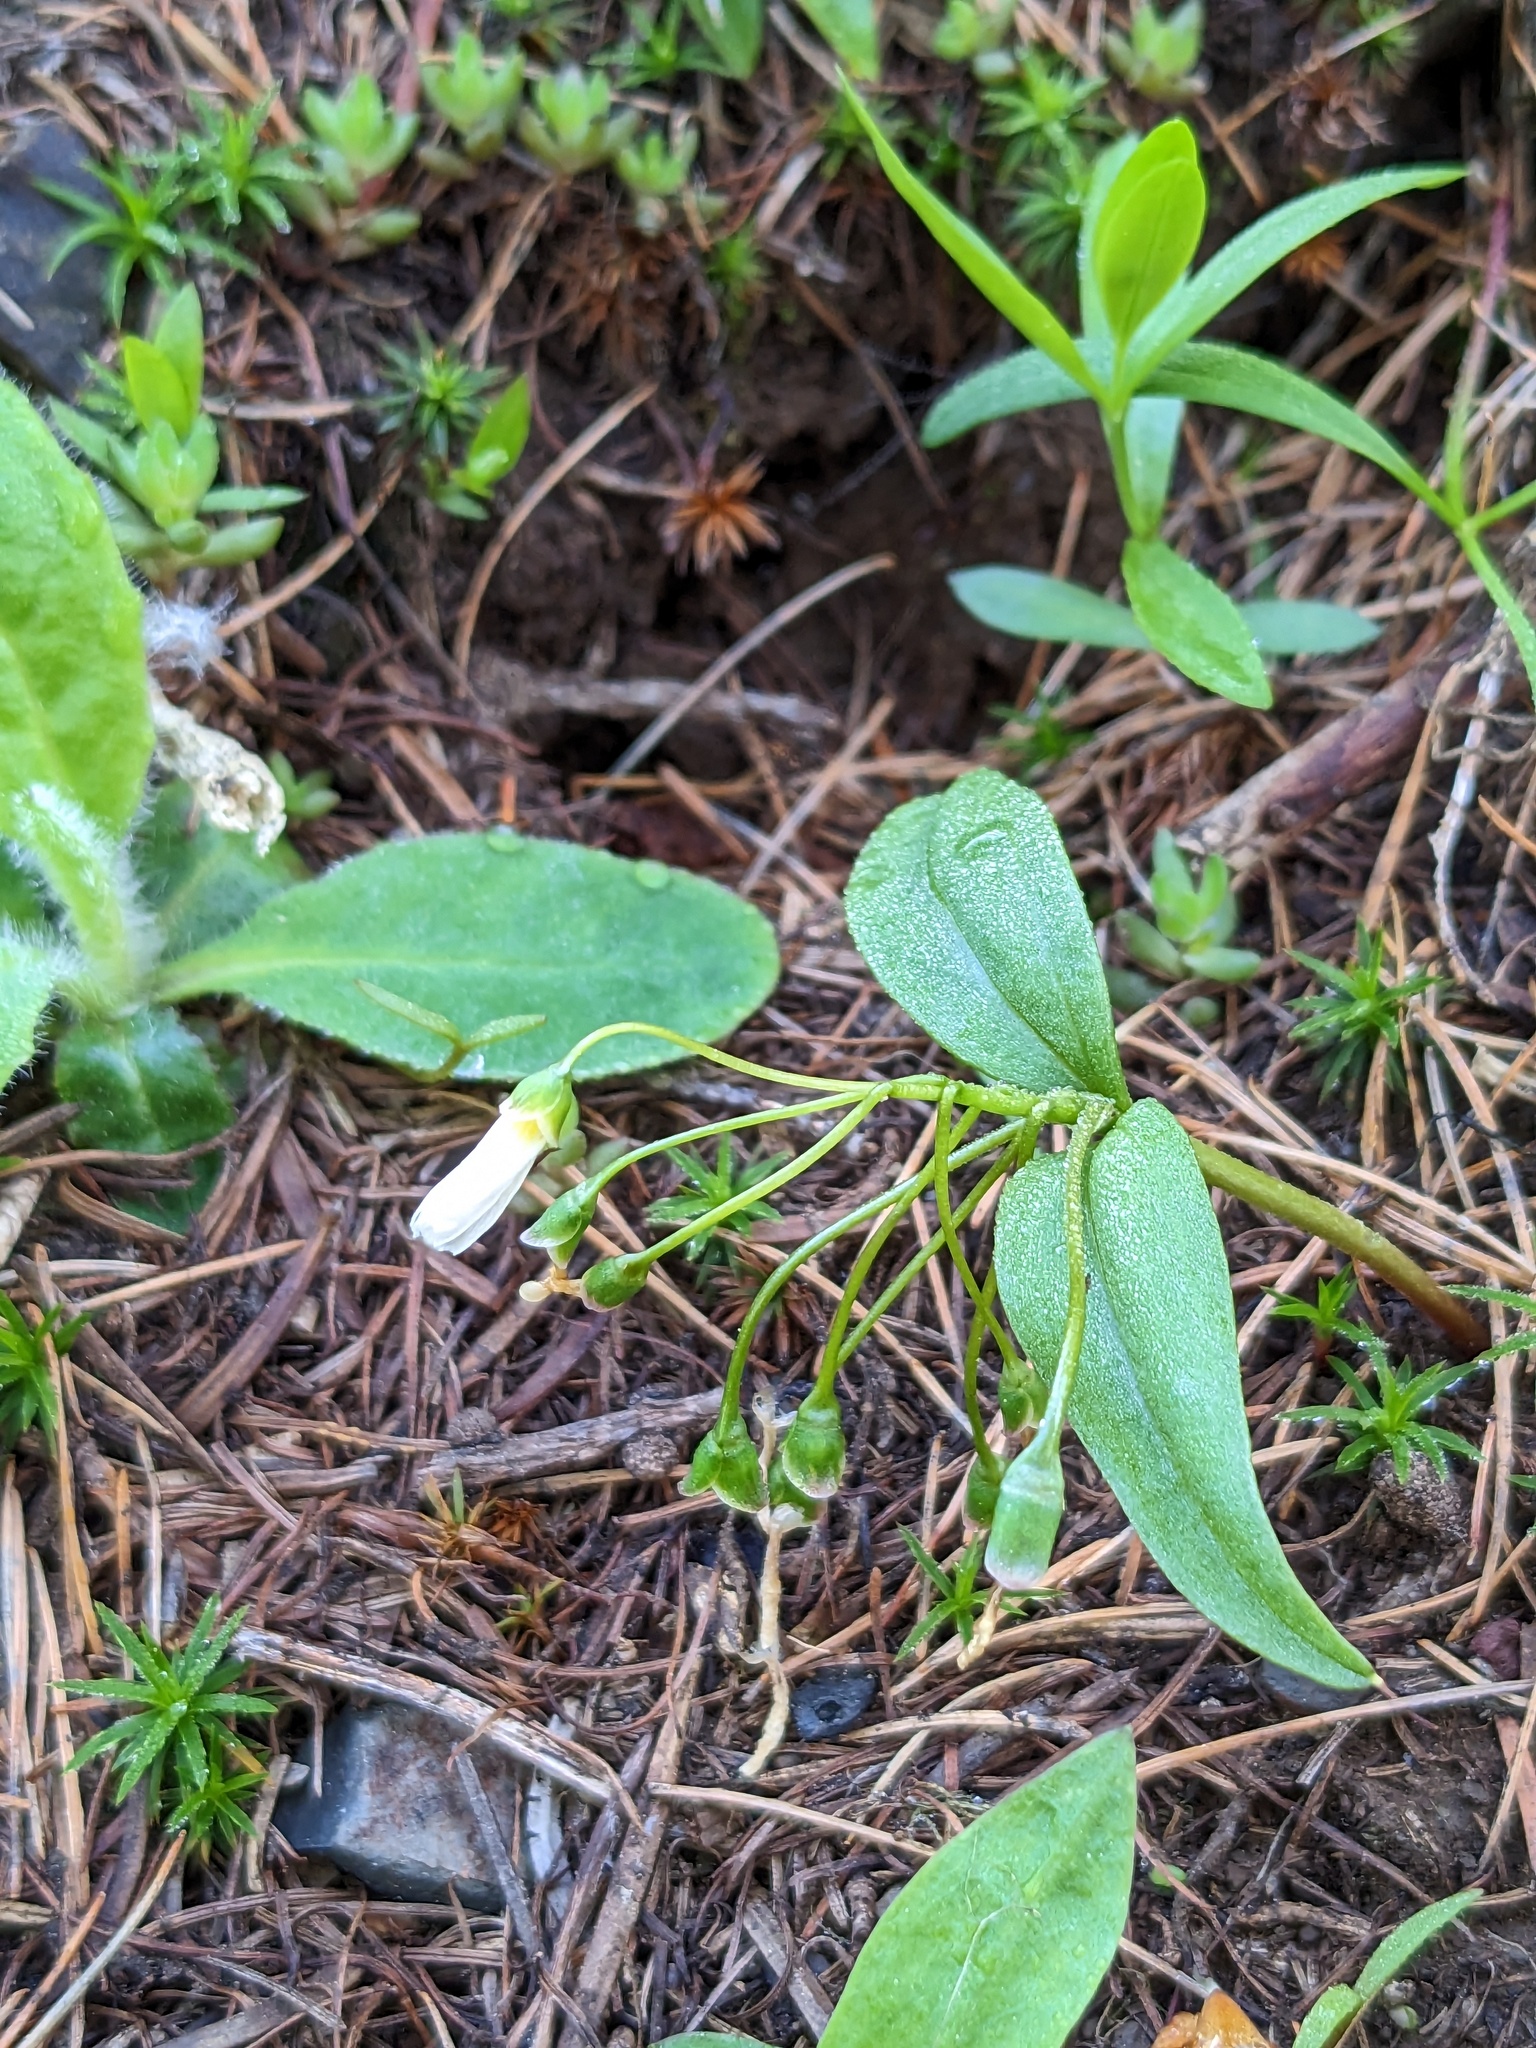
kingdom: Plantae
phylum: Tracheophyta
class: Magnoliopsida
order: Caryophyllales
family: Montiaceae
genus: Claytonia
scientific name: Claytonia lanceolata
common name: Western spring-beauty
